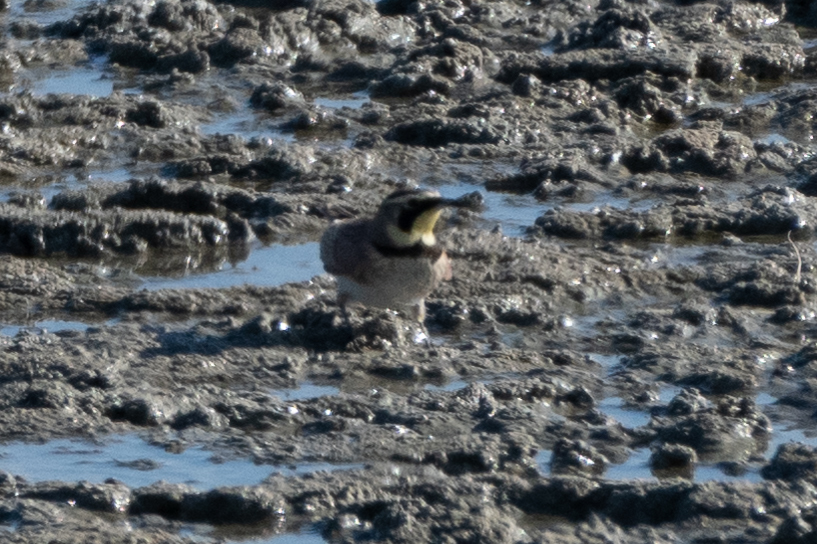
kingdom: Animalia
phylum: Chordata
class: Aves
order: Passeriformes
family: Alaudidae
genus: Eremophila
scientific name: Eremophila alpestris
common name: Horned lark
